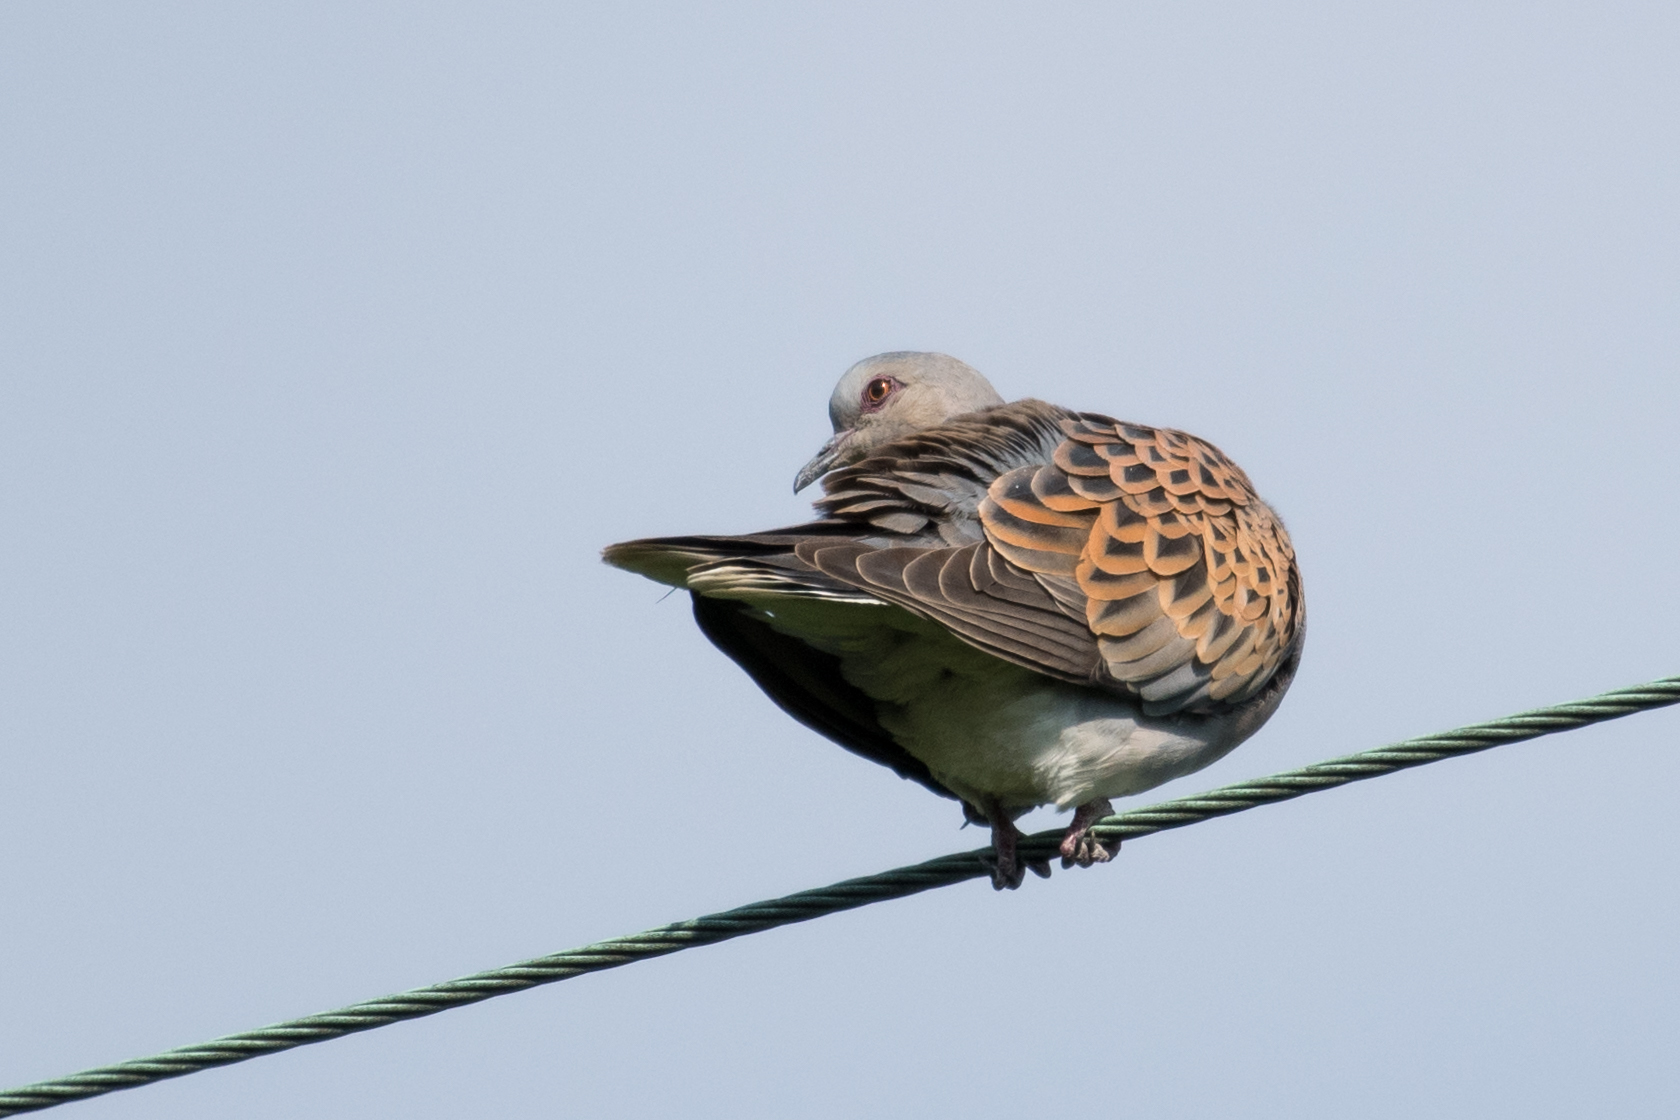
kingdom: Animalia
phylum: Chordata
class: Aves
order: Columbiformes
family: Columbidae
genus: Streptopelia
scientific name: Streptopelia turtur
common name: European turtle dove
